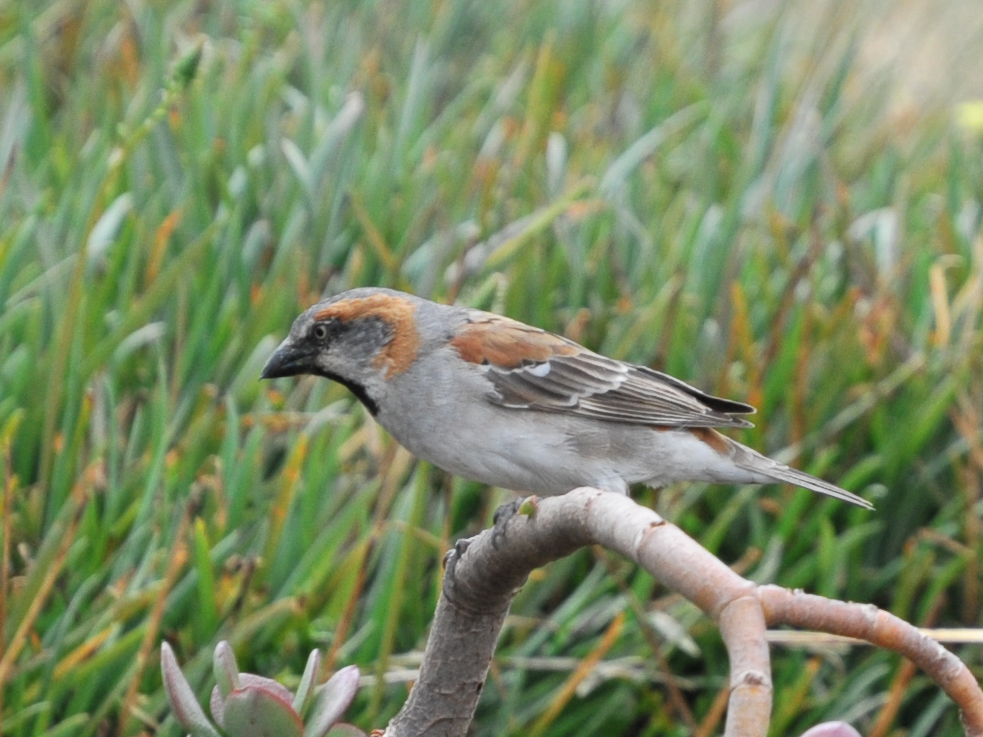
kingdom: Animalia
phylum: Chordata
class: Aves
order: Passeriformes
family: Passeridae
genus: Passer
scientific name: Passer rufocinctus
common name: Kenya sparrow
